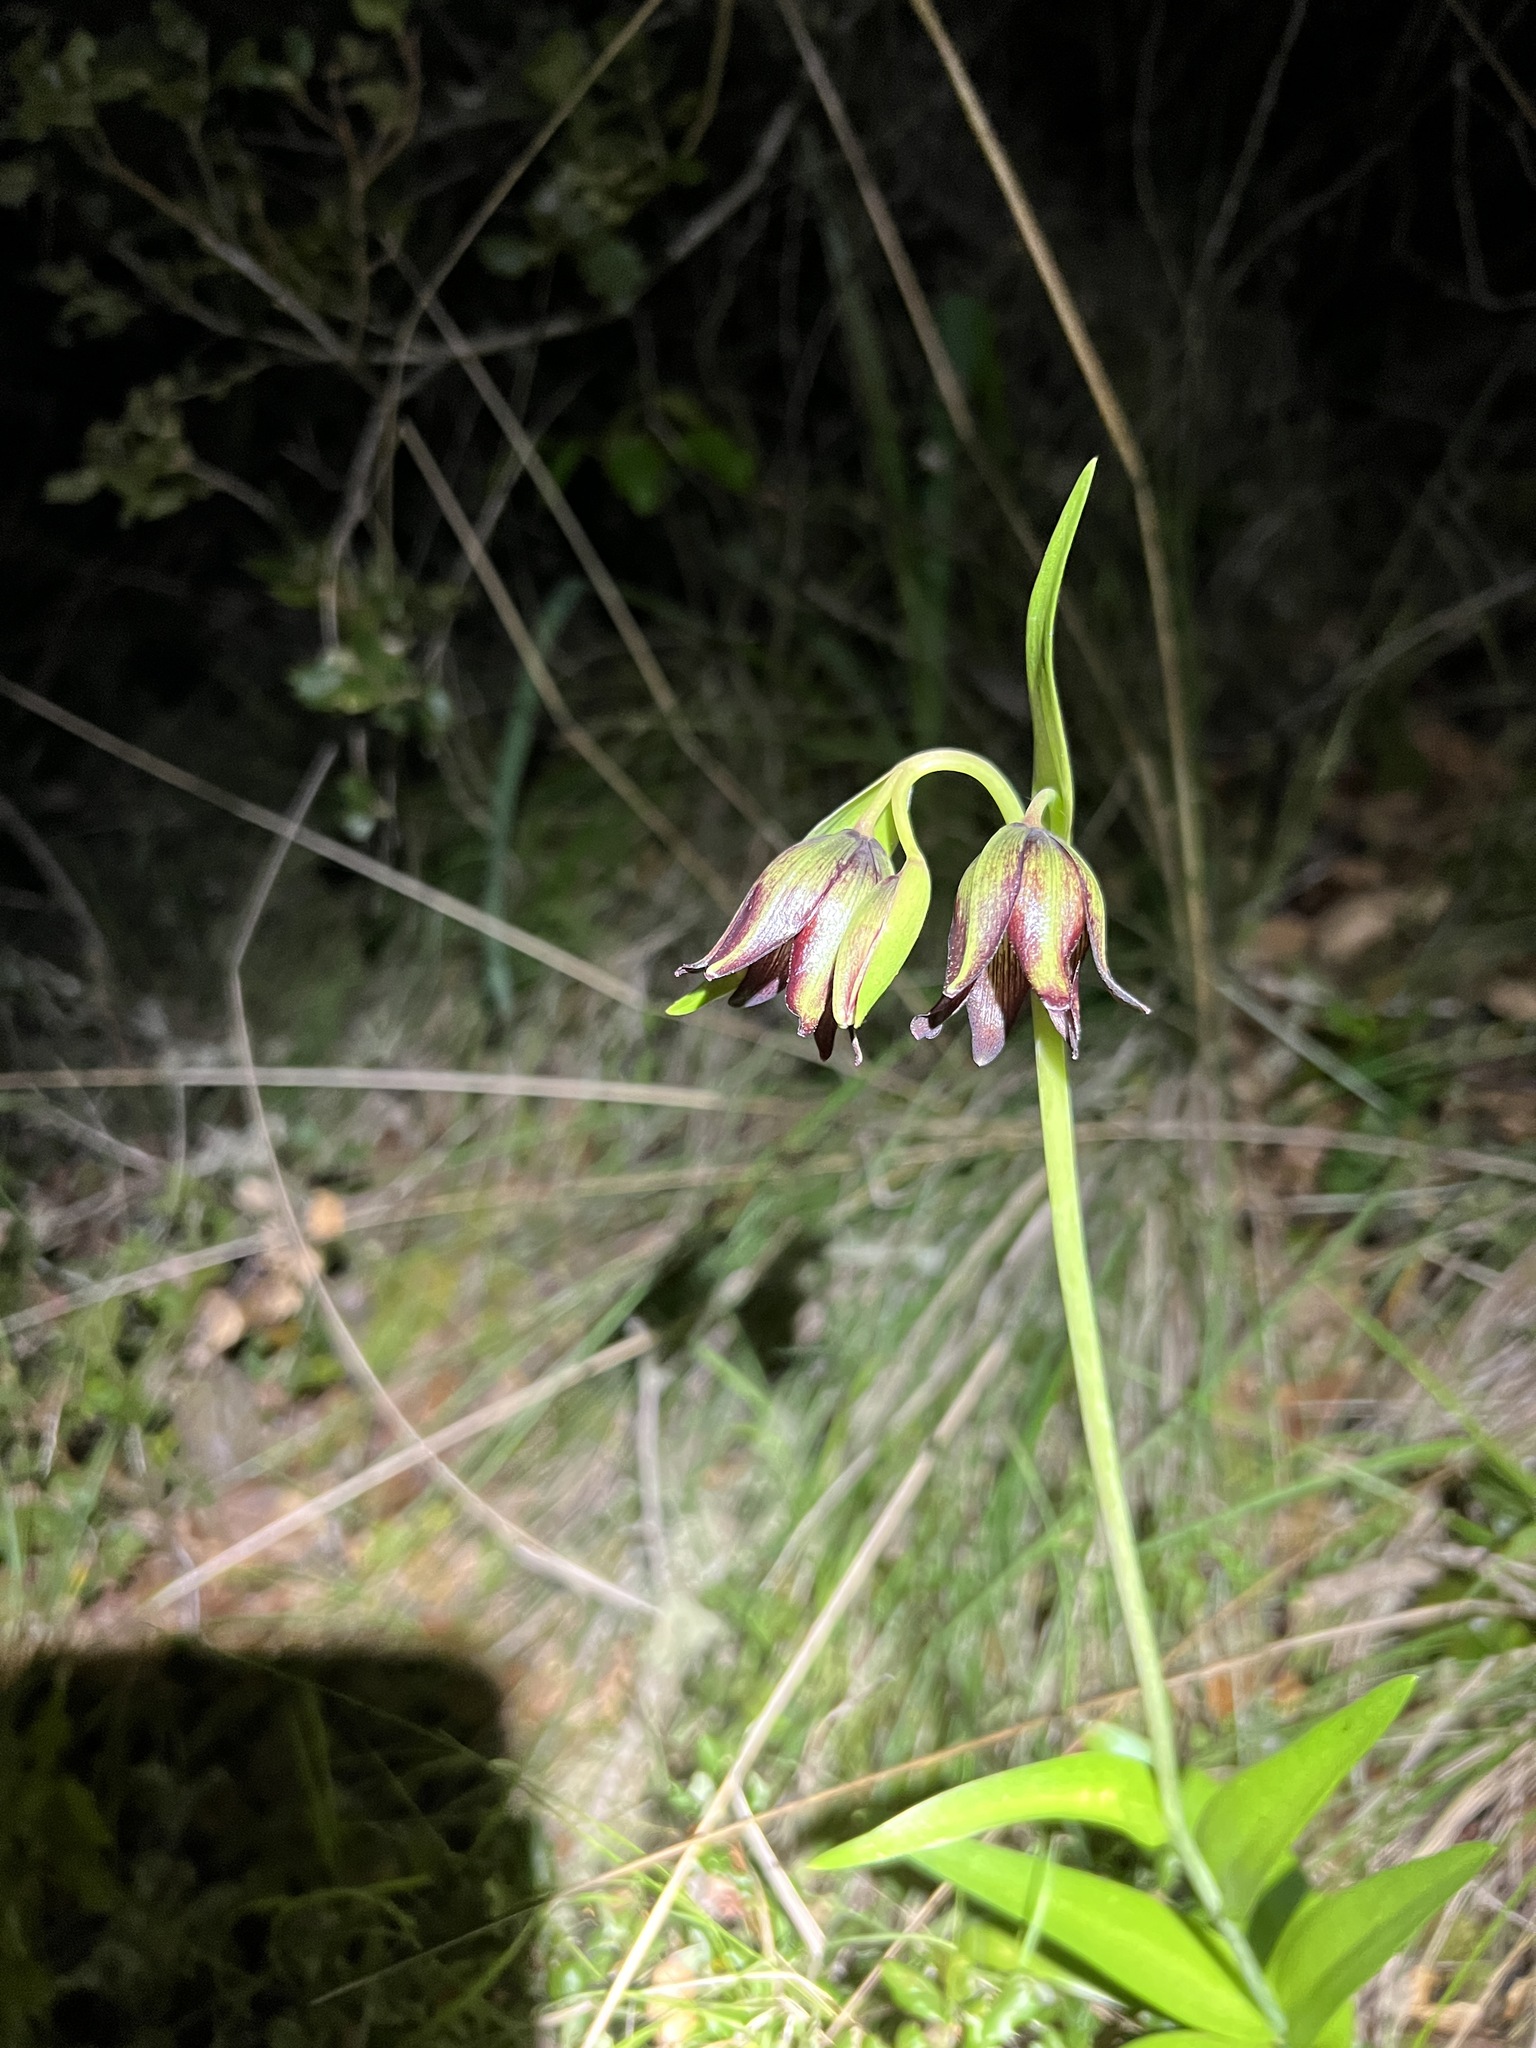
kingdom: Plantae
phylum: Tracheophyta
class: Liliopsida
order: Liliales
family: Liliaceae
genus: Fritillaria
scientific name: Fritillaria biflora
